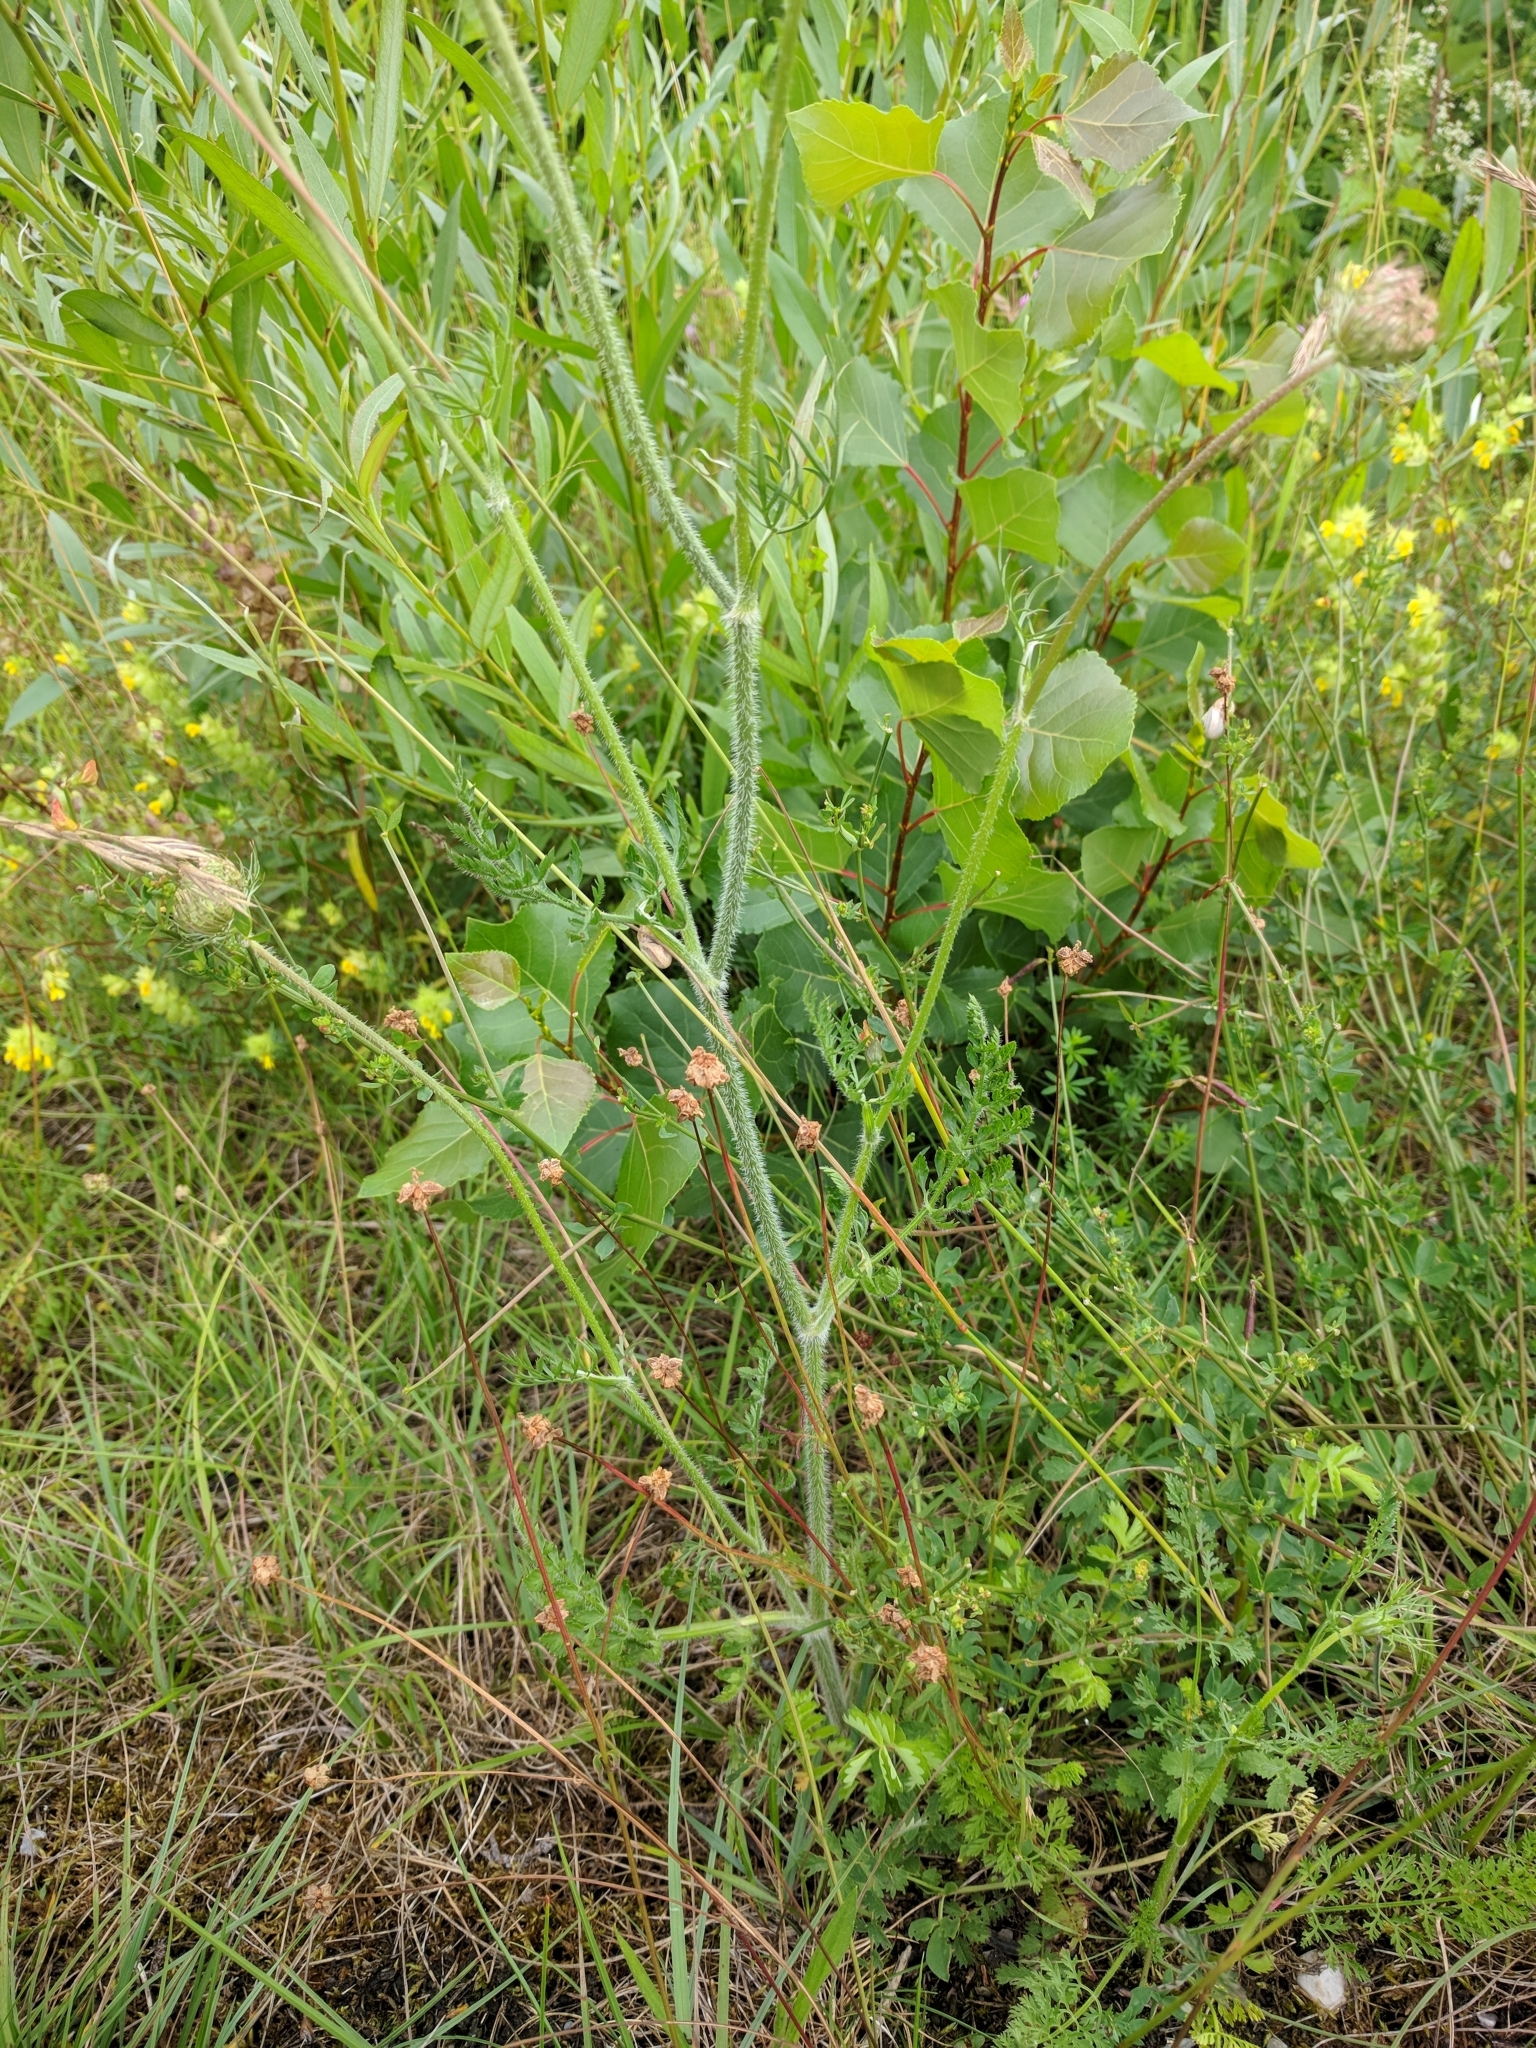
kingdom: Plantae
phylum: Tracheophyta
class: Magnoliopsida
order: Apiales
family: Apiaceae
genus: Daucus
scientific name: Daucus carota
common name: Wild carrot
